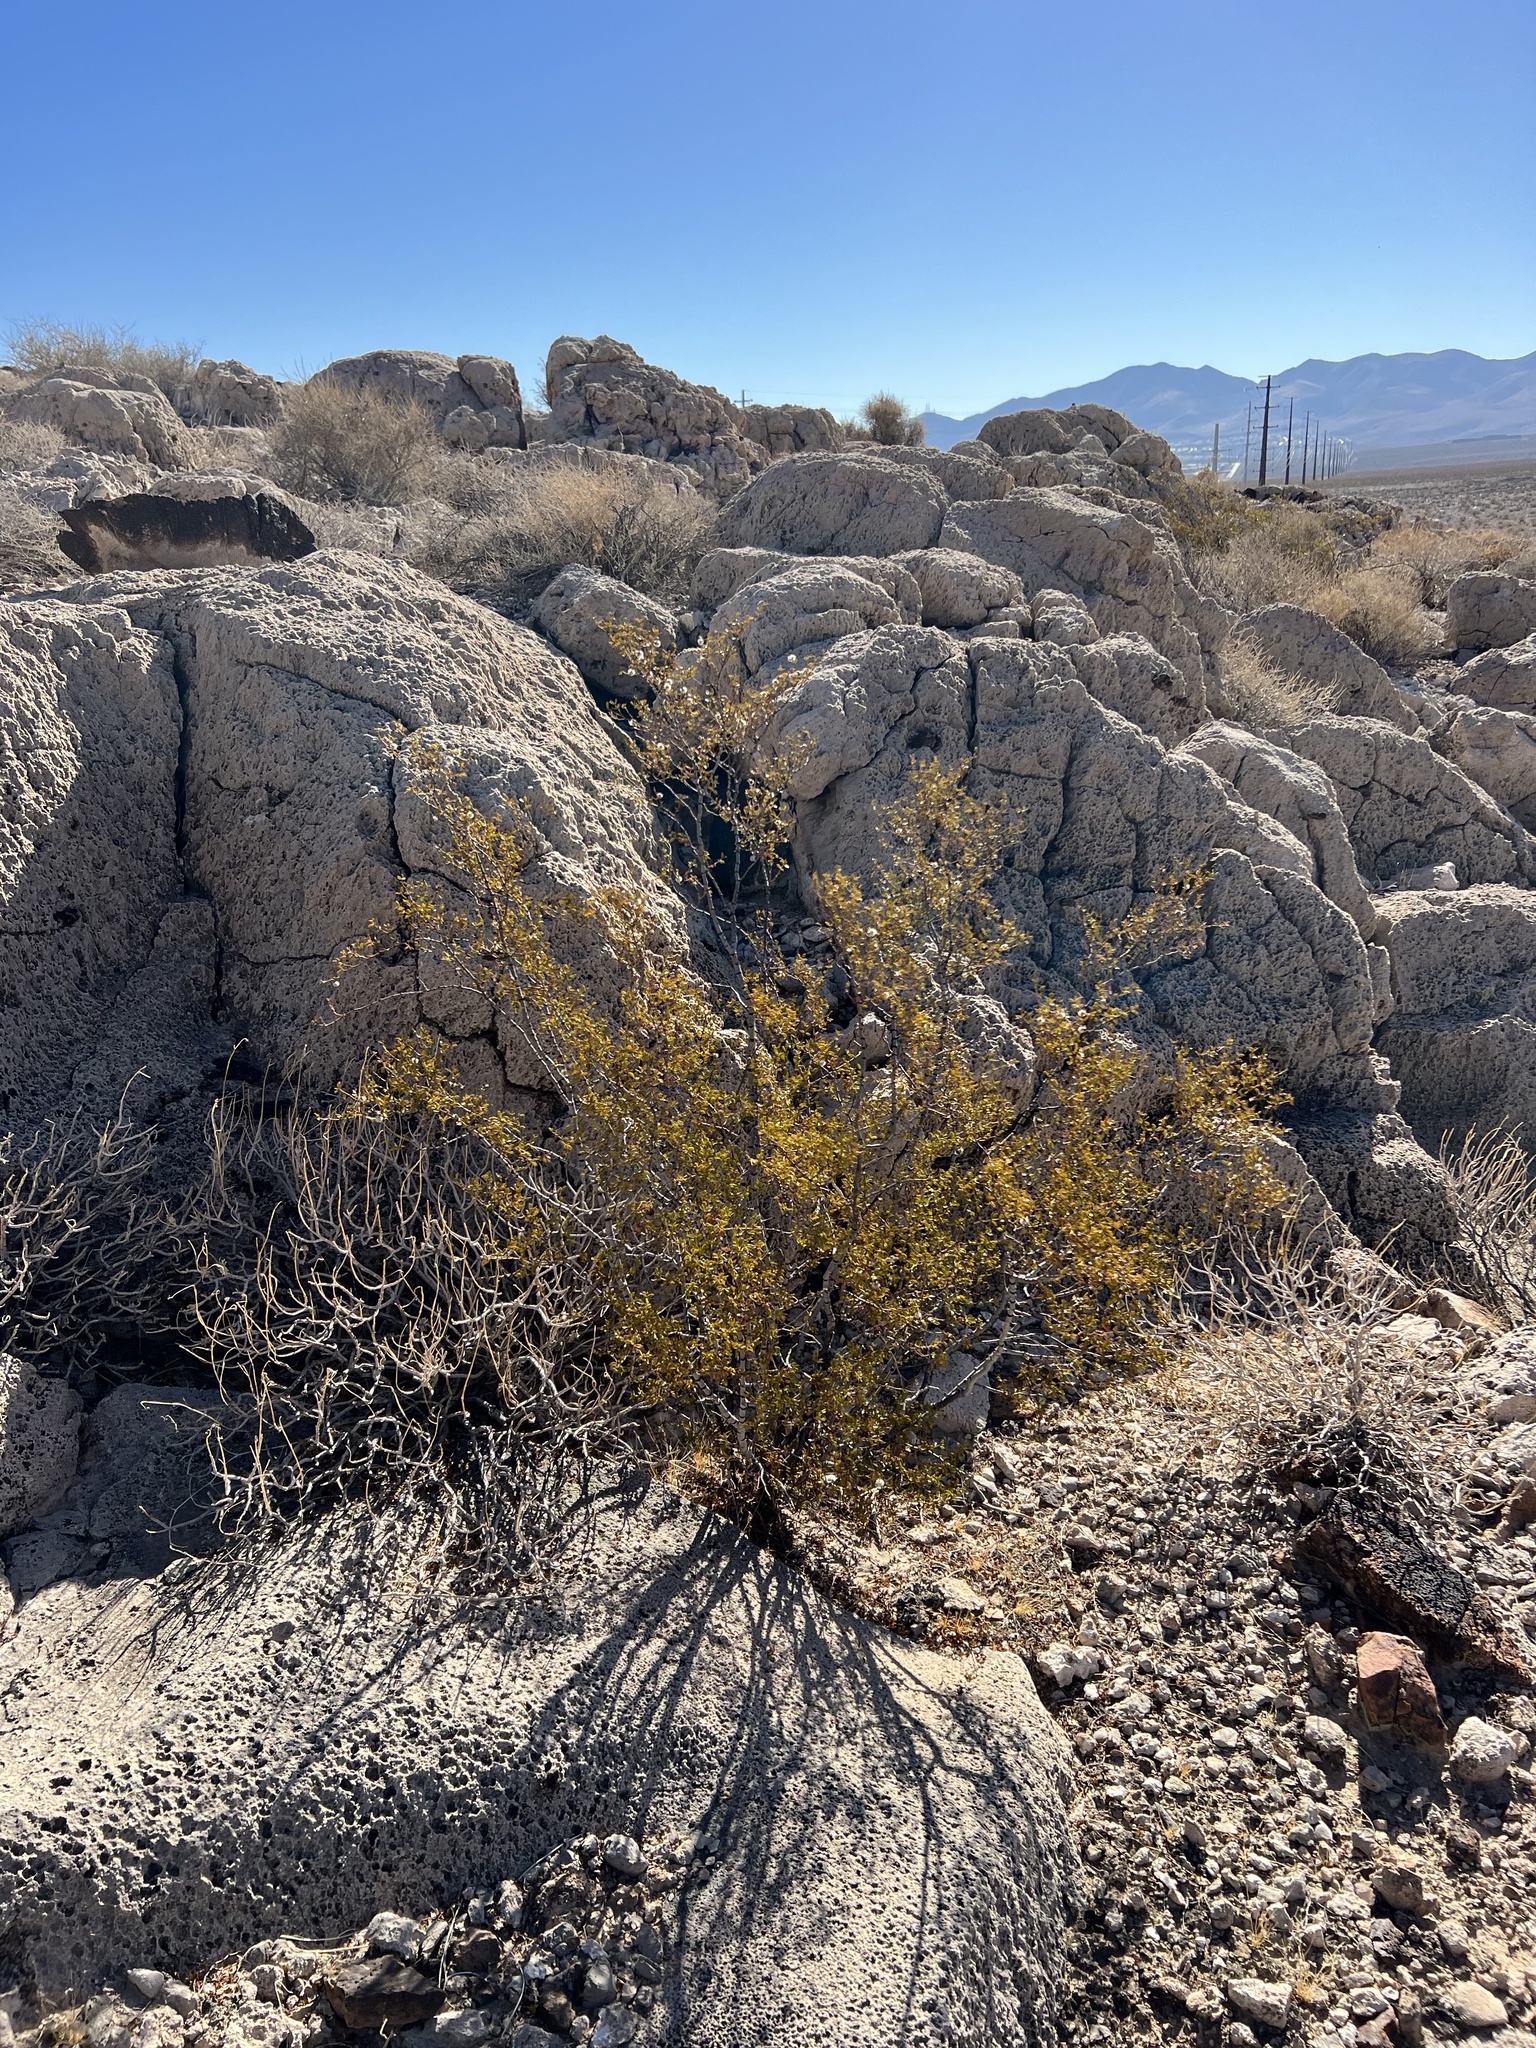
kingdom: Plantae
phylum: Tracheophyta
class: Magnoliopsida
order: Zygophyllales
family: Zygophyllaceae
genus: Larrea
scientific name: Larrea tridentata
